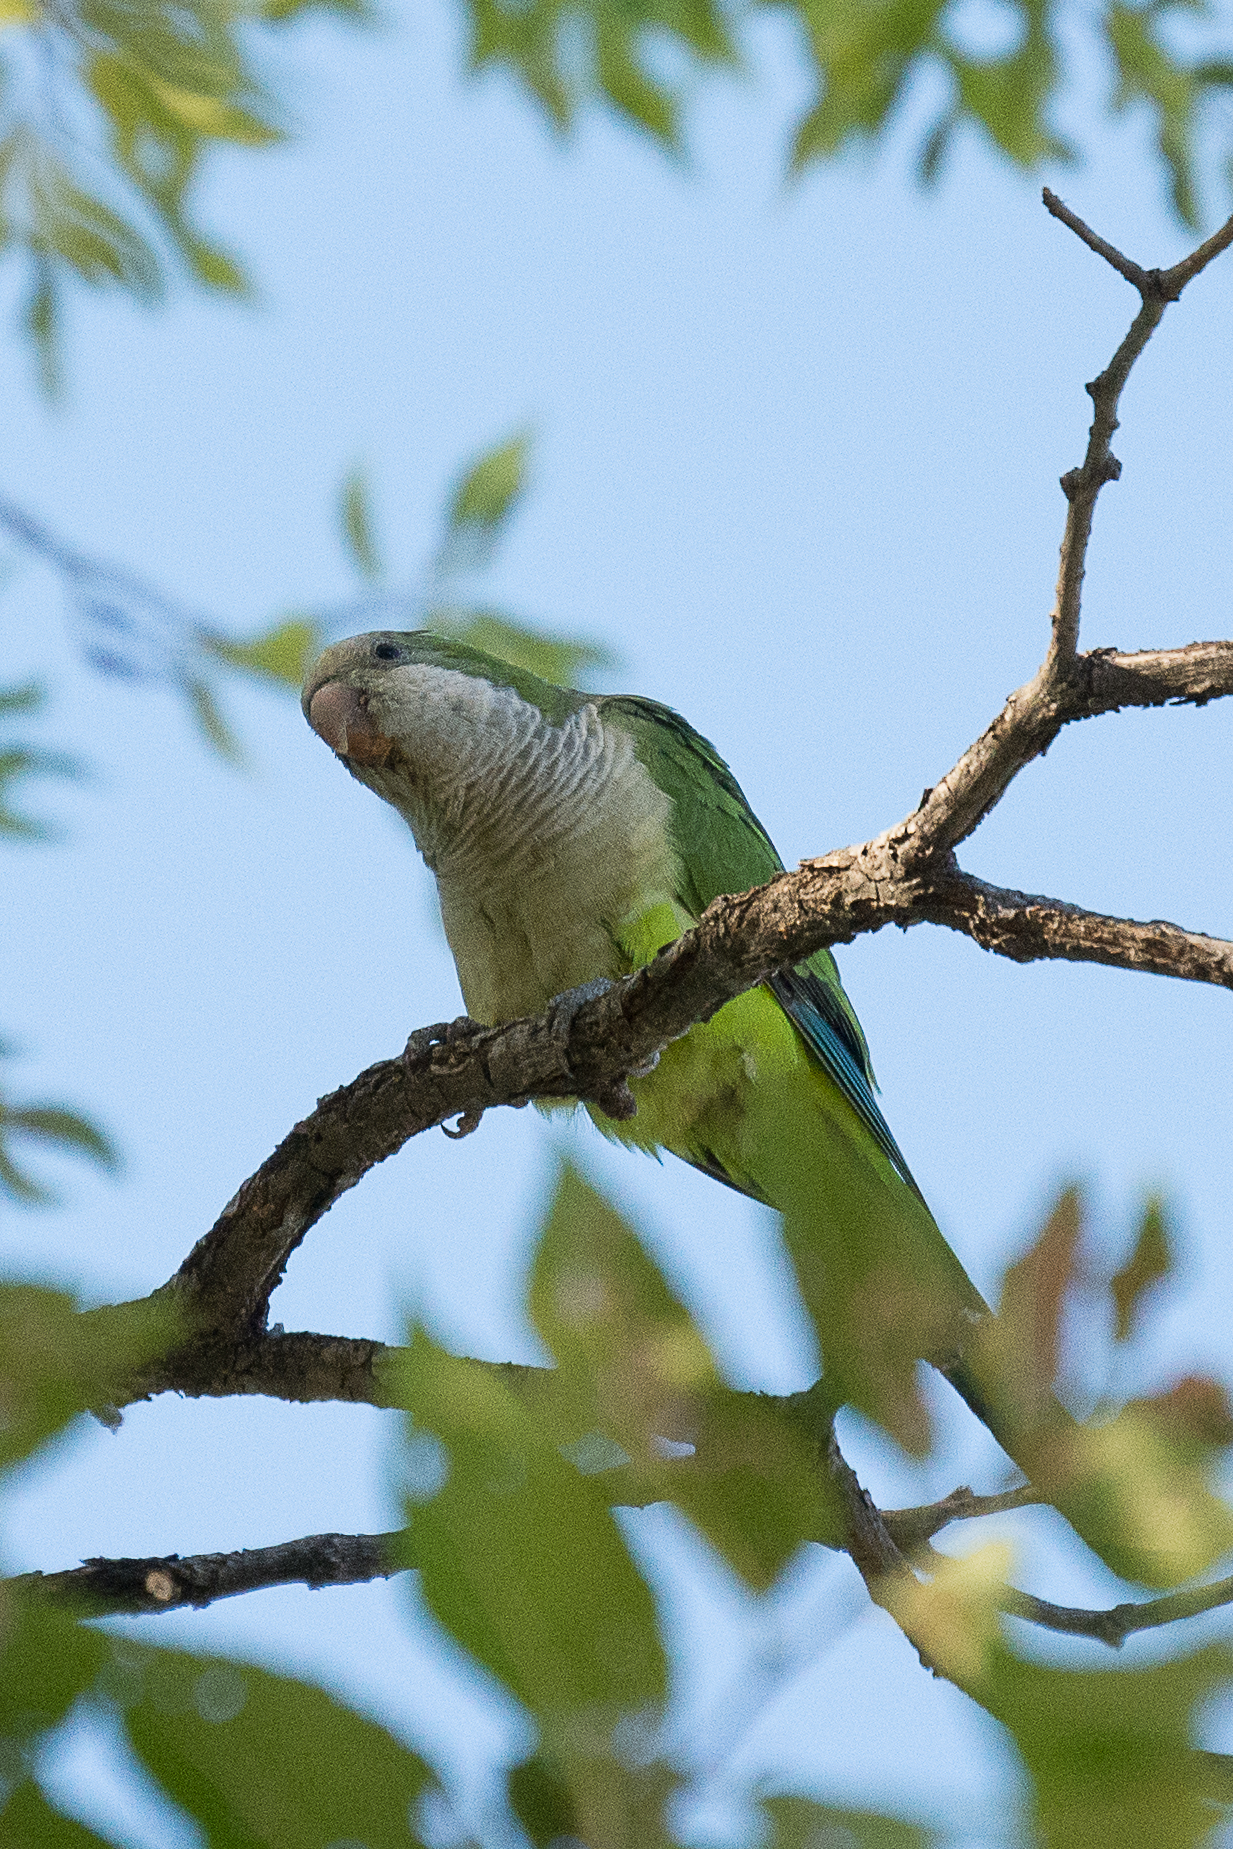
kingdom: Animalia
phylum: Chordata
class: Aves
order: Psittaciformes
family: Psittacidae
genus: Myiopsitta
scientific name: Myiopsitta monachus
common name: Monk parakeet
